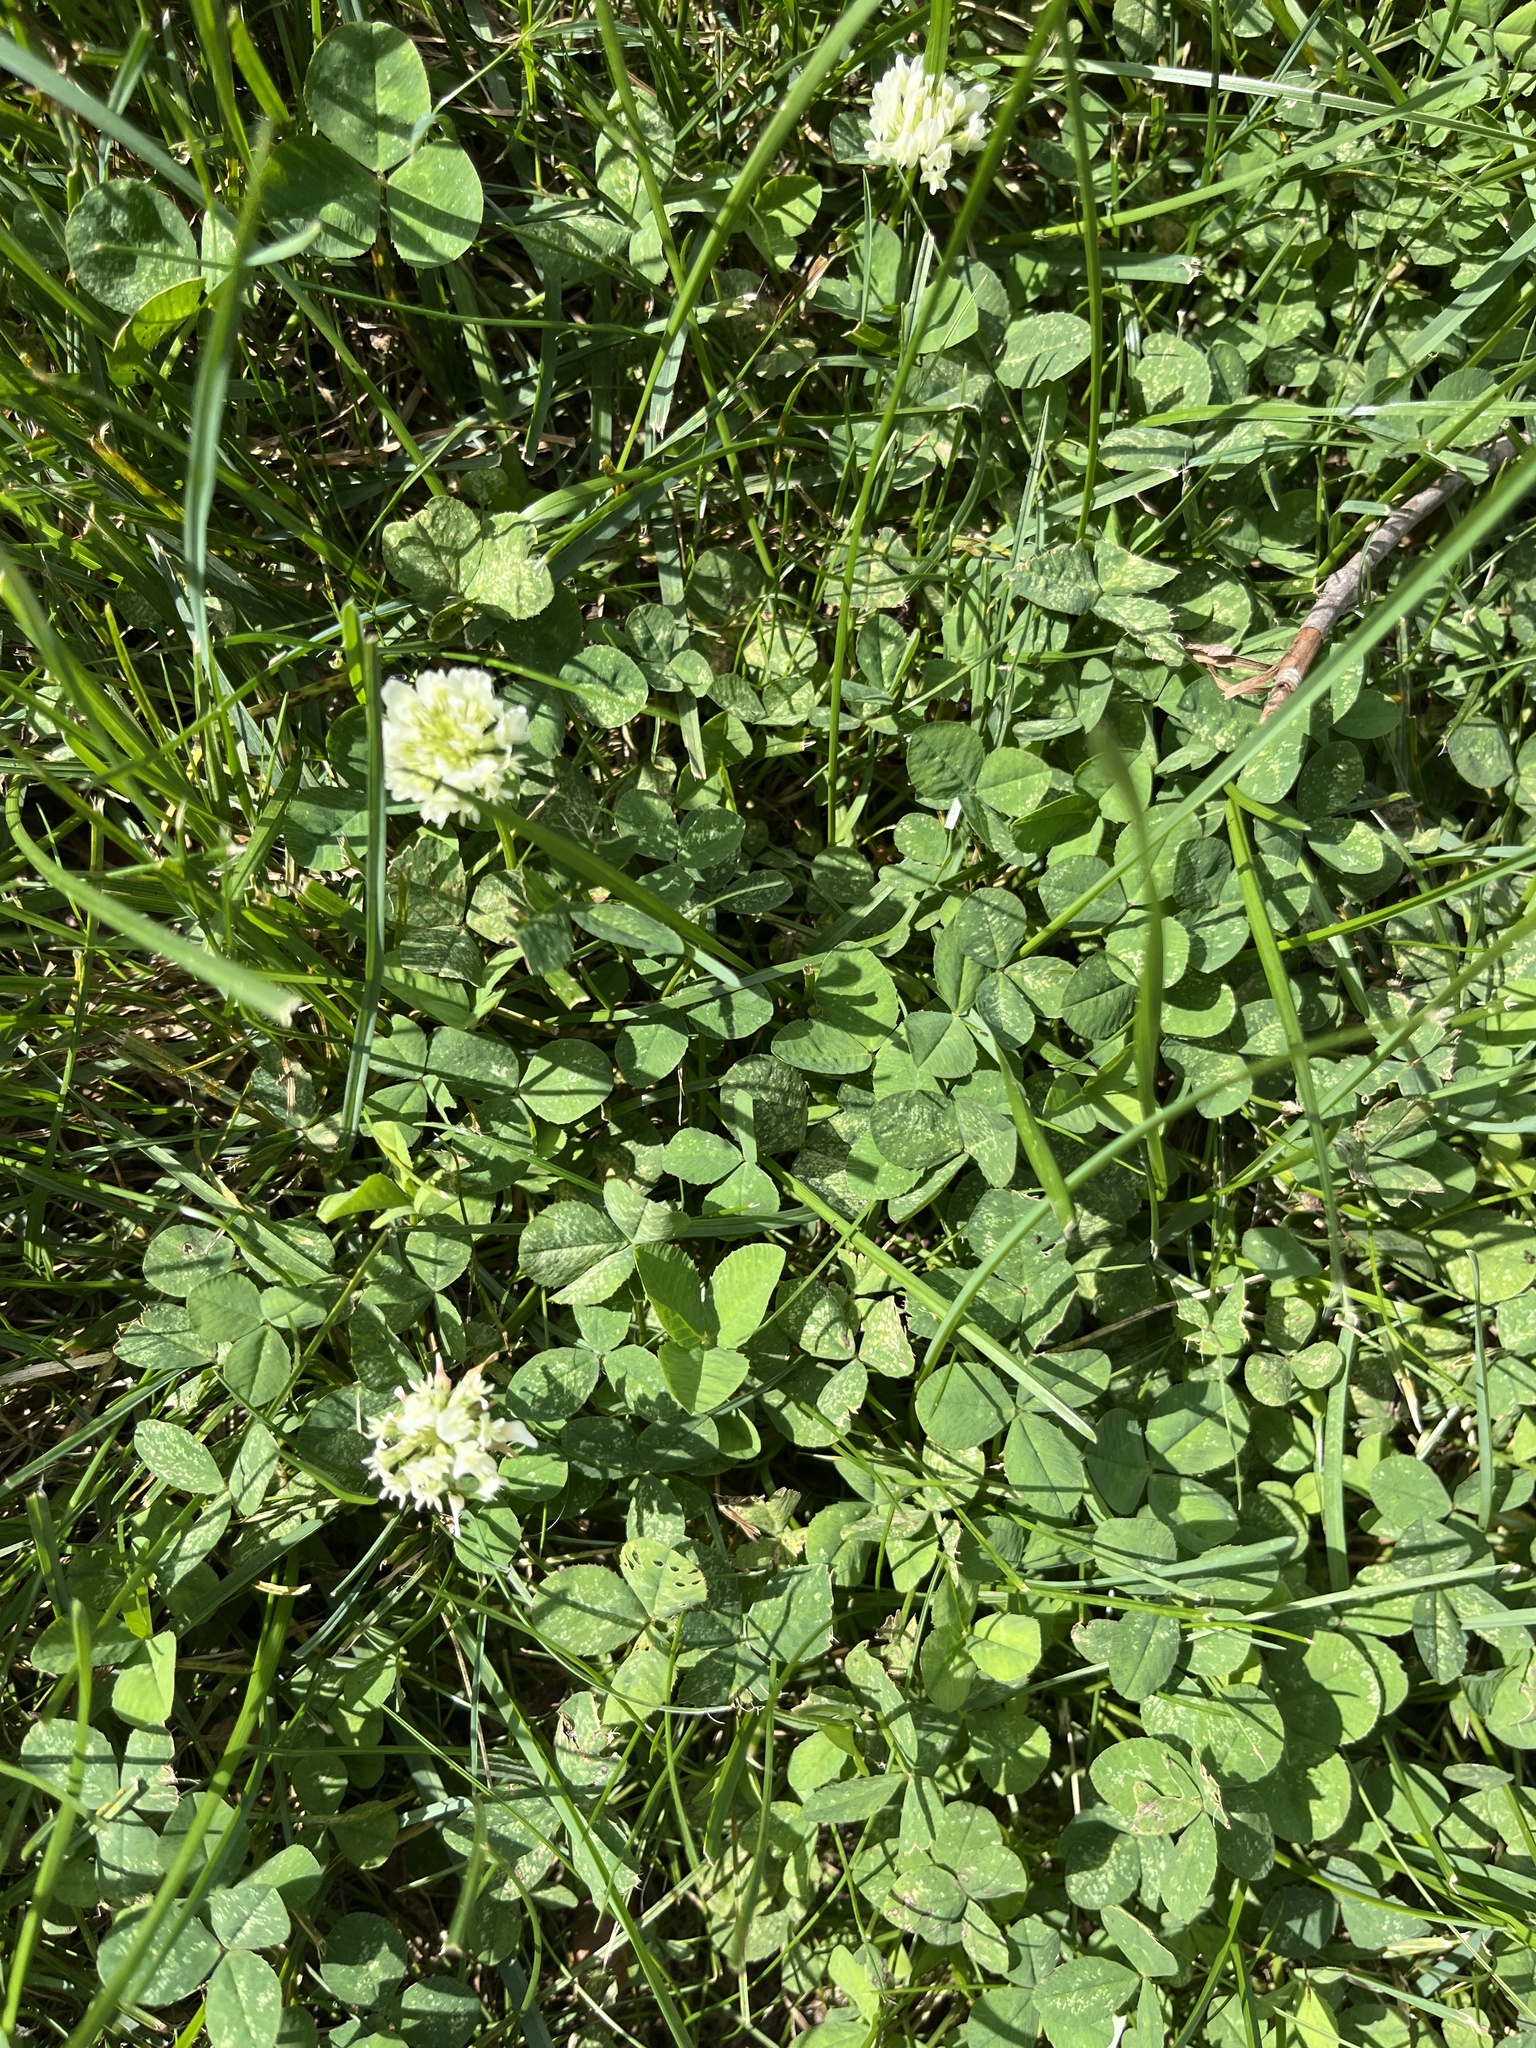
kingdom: Plantae
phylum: Tracheophyta
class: Magnoliopsida
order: Fabales
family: Fabaceae
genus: Trifolium
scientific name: Trifolium repens
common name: White clover
